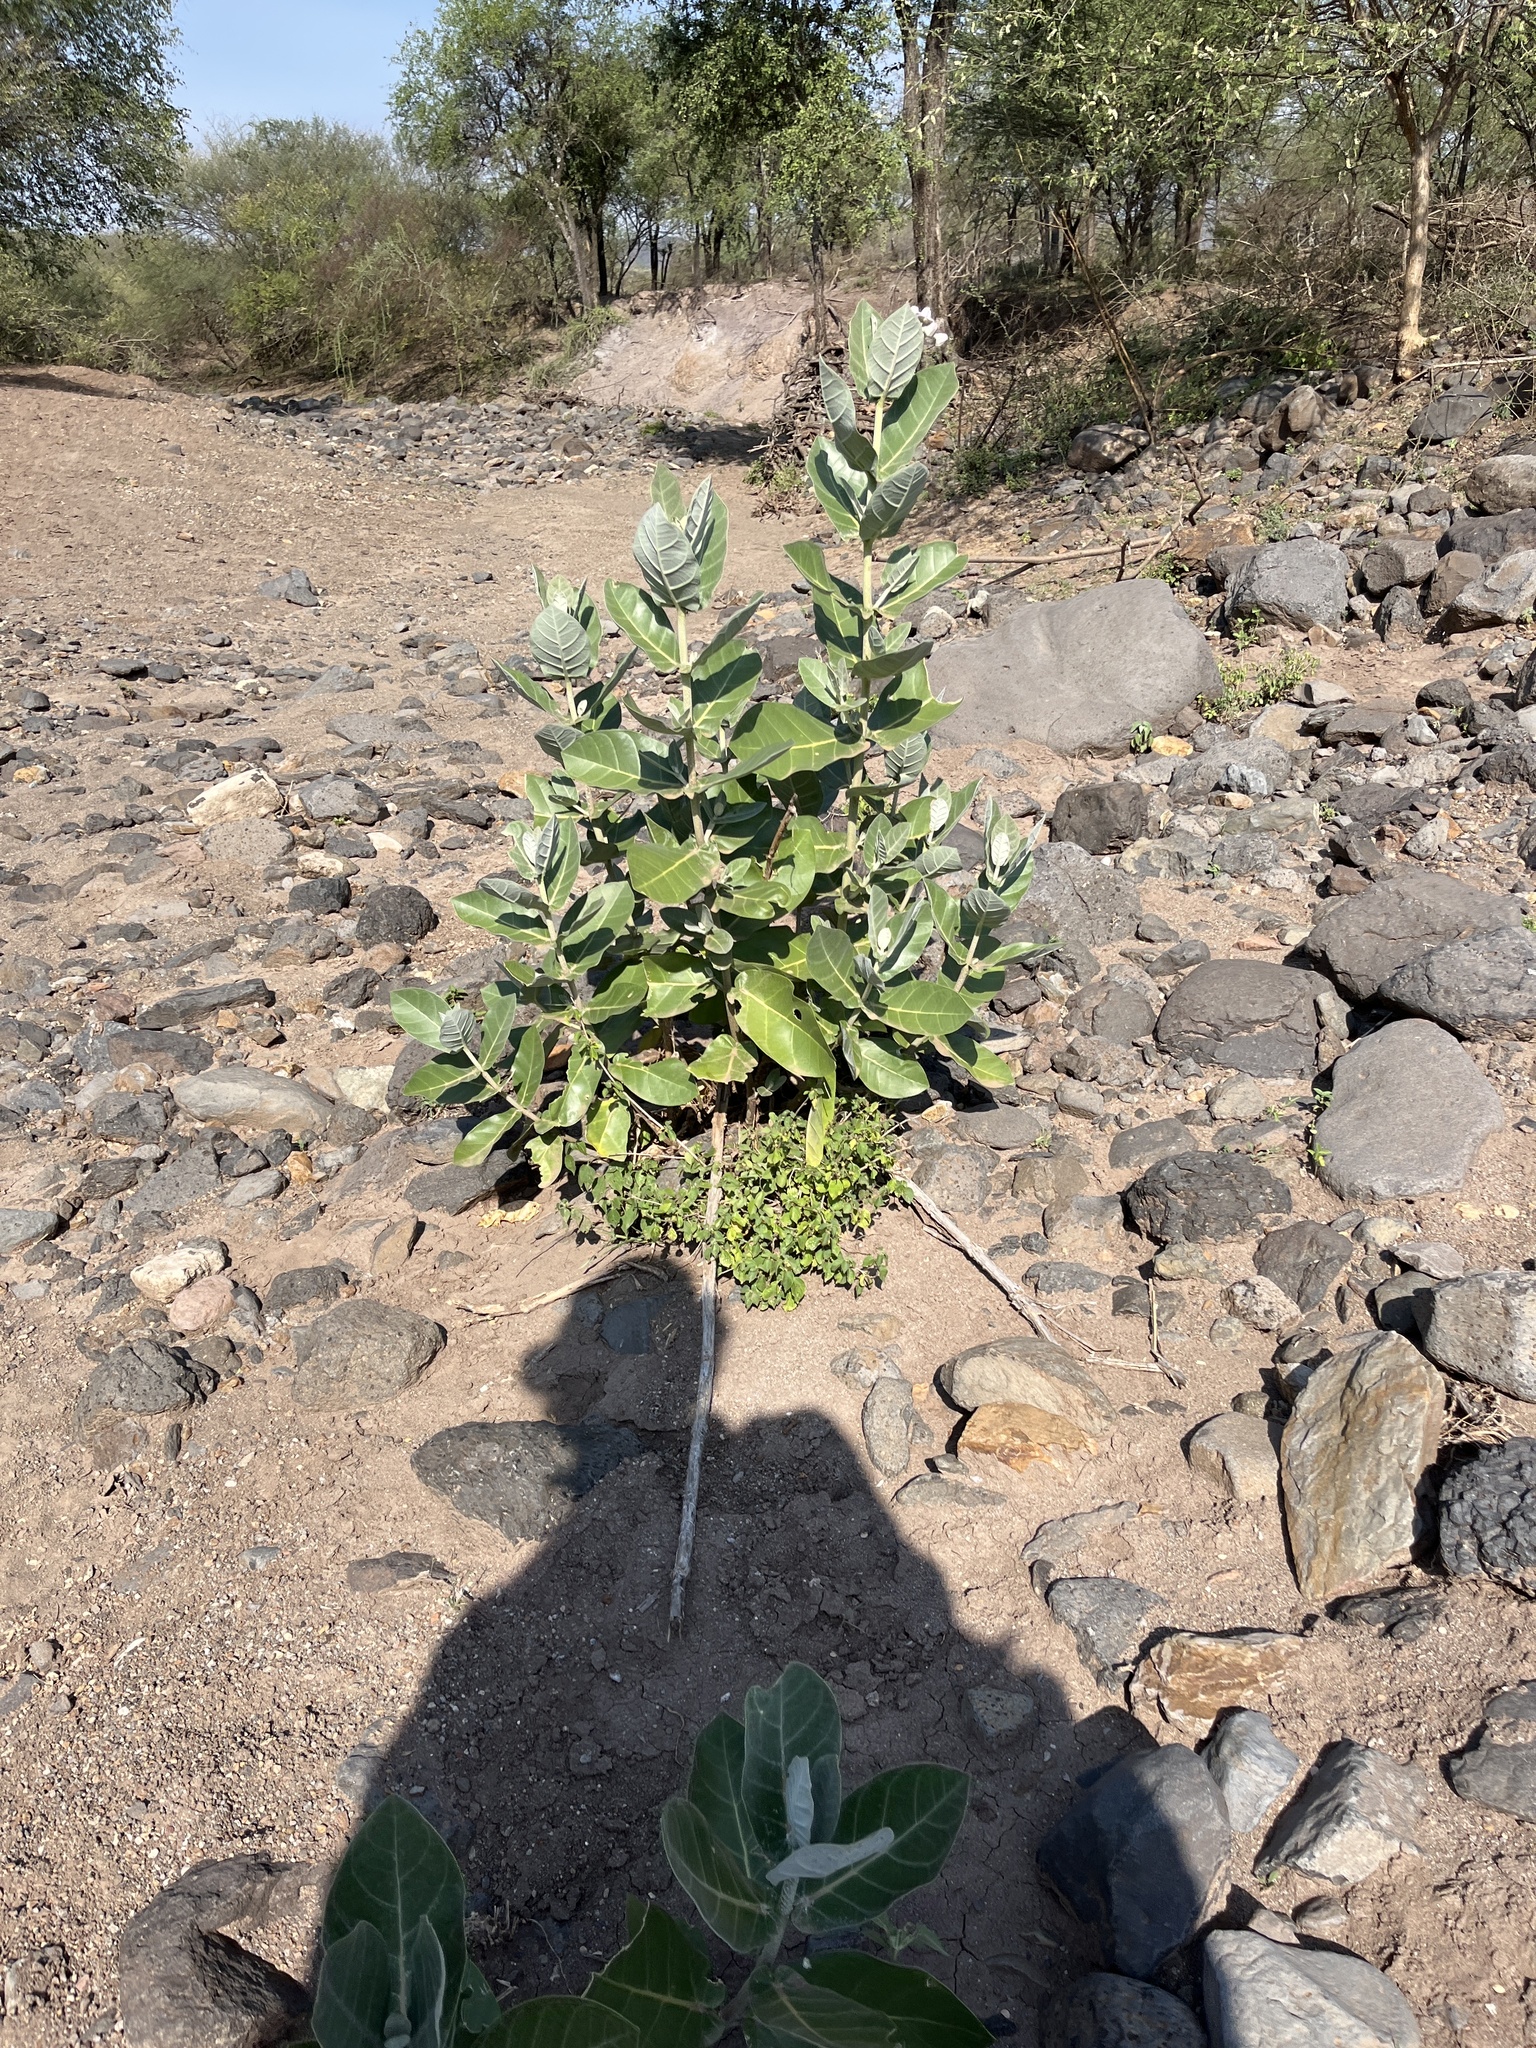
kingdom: Plantae
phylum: Tracheophyta
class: Magnoliopsida
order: Gentianales
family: Apocynaceae
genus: Calotropis
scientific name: Calotropis gigantea
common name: Crown flower
